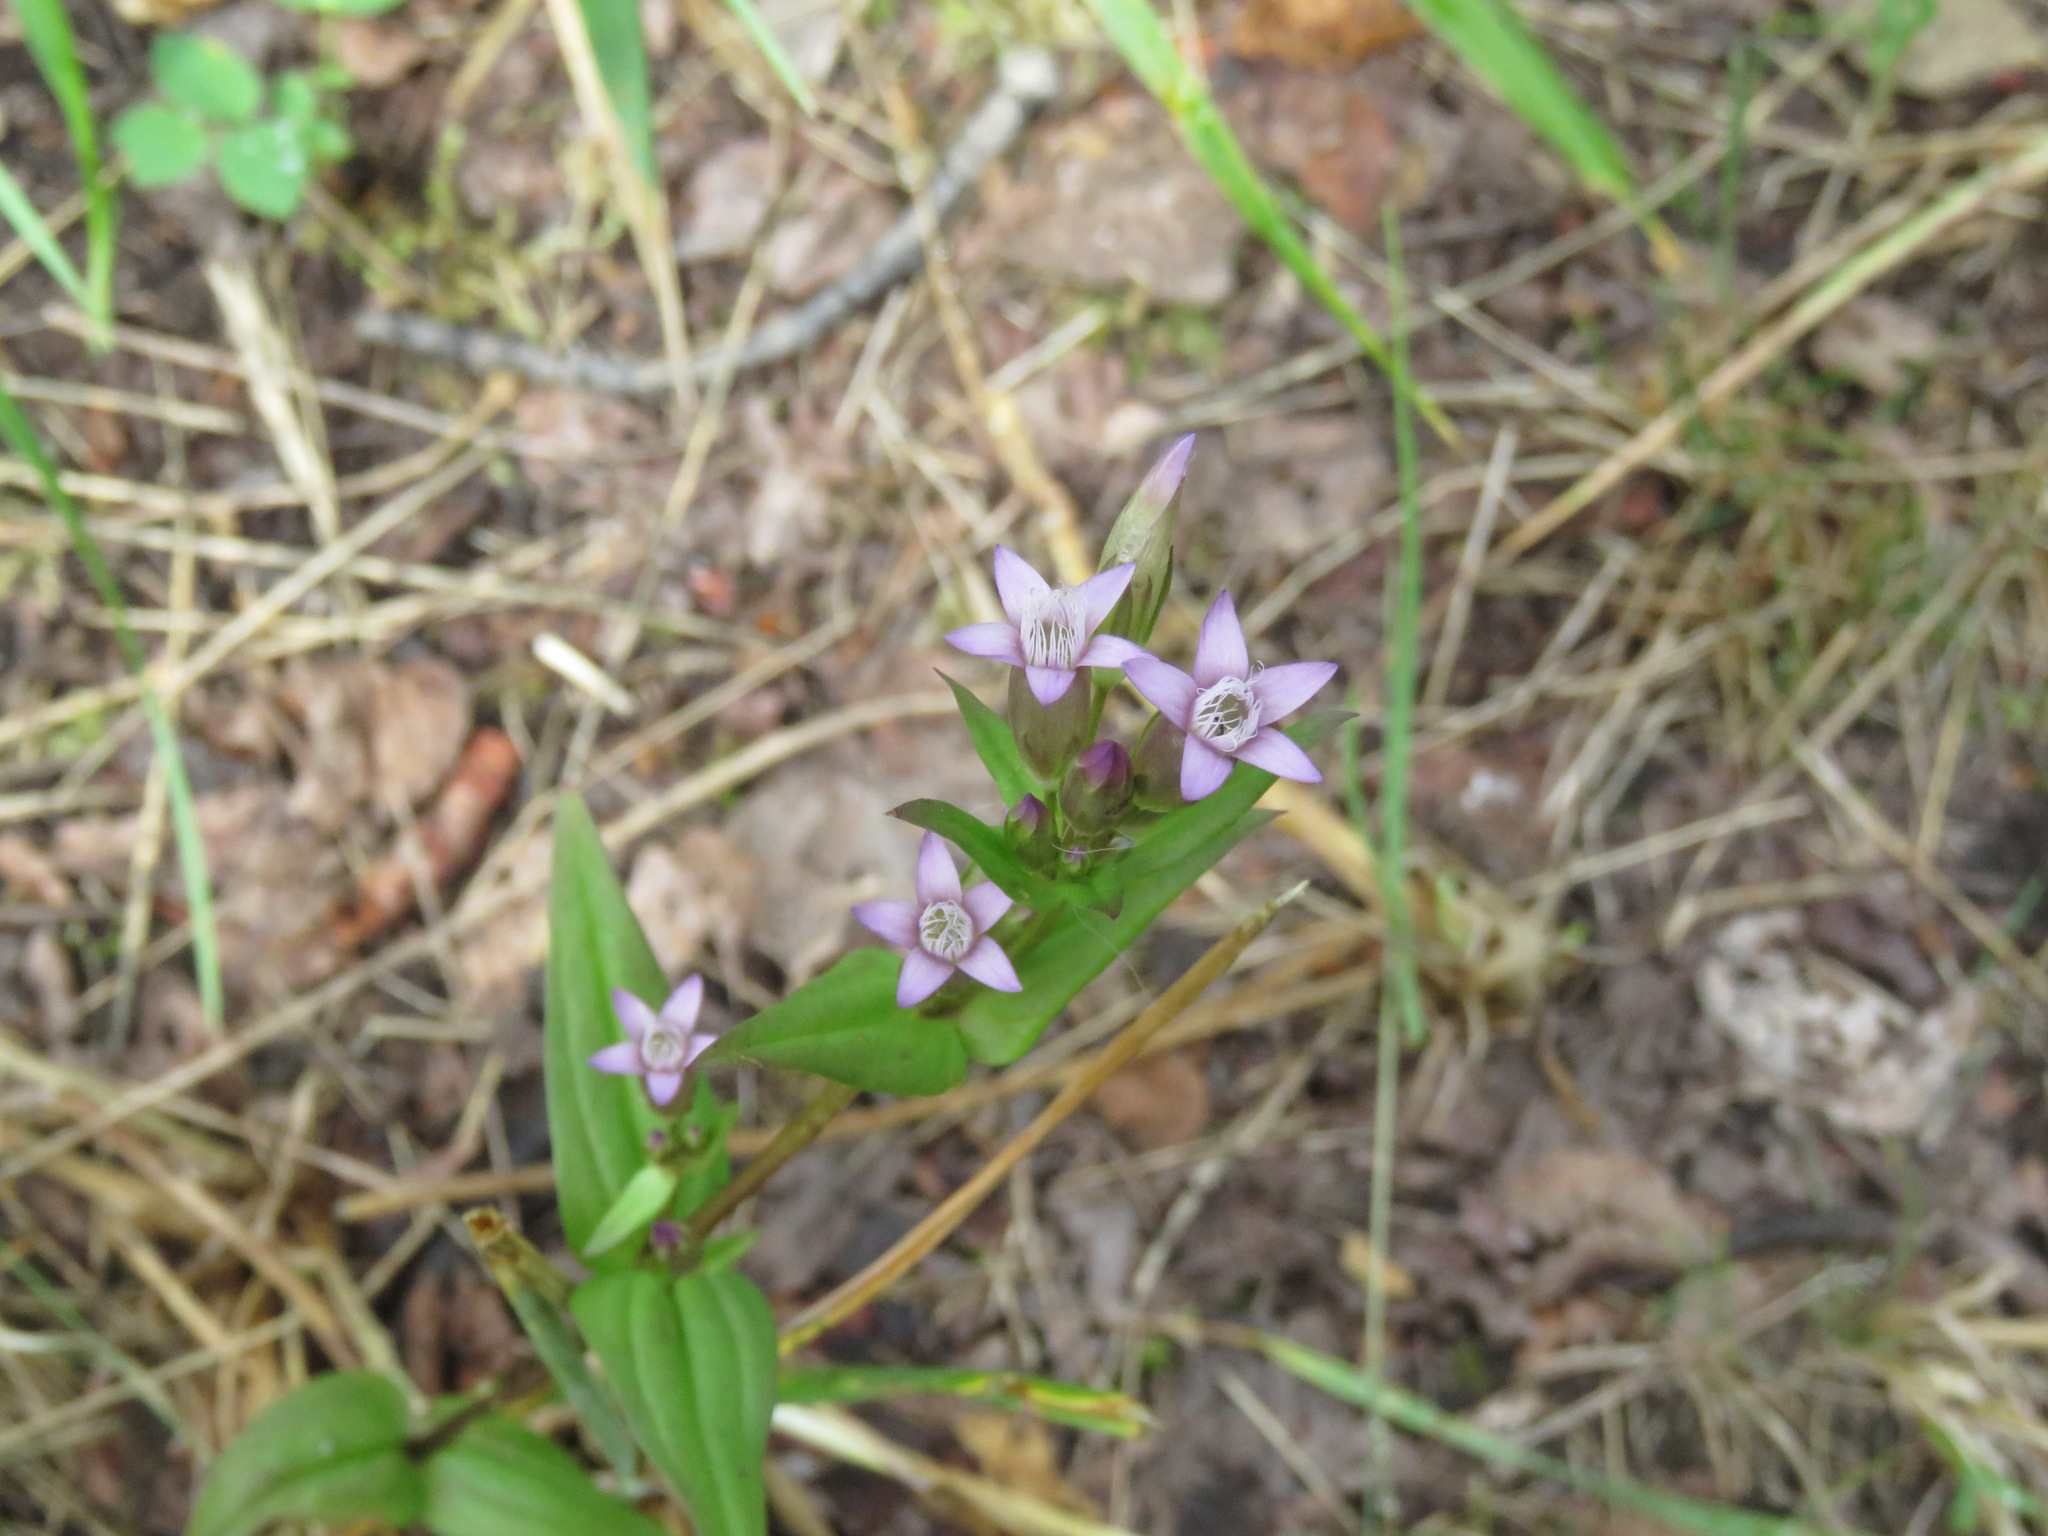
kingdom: Plantae
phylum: Tracheophyta
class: Magnoliopsida
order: Gentianales
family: Gentianaceae
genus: Gentianella
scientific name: Gentianella amarella
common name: Autumn gentian
